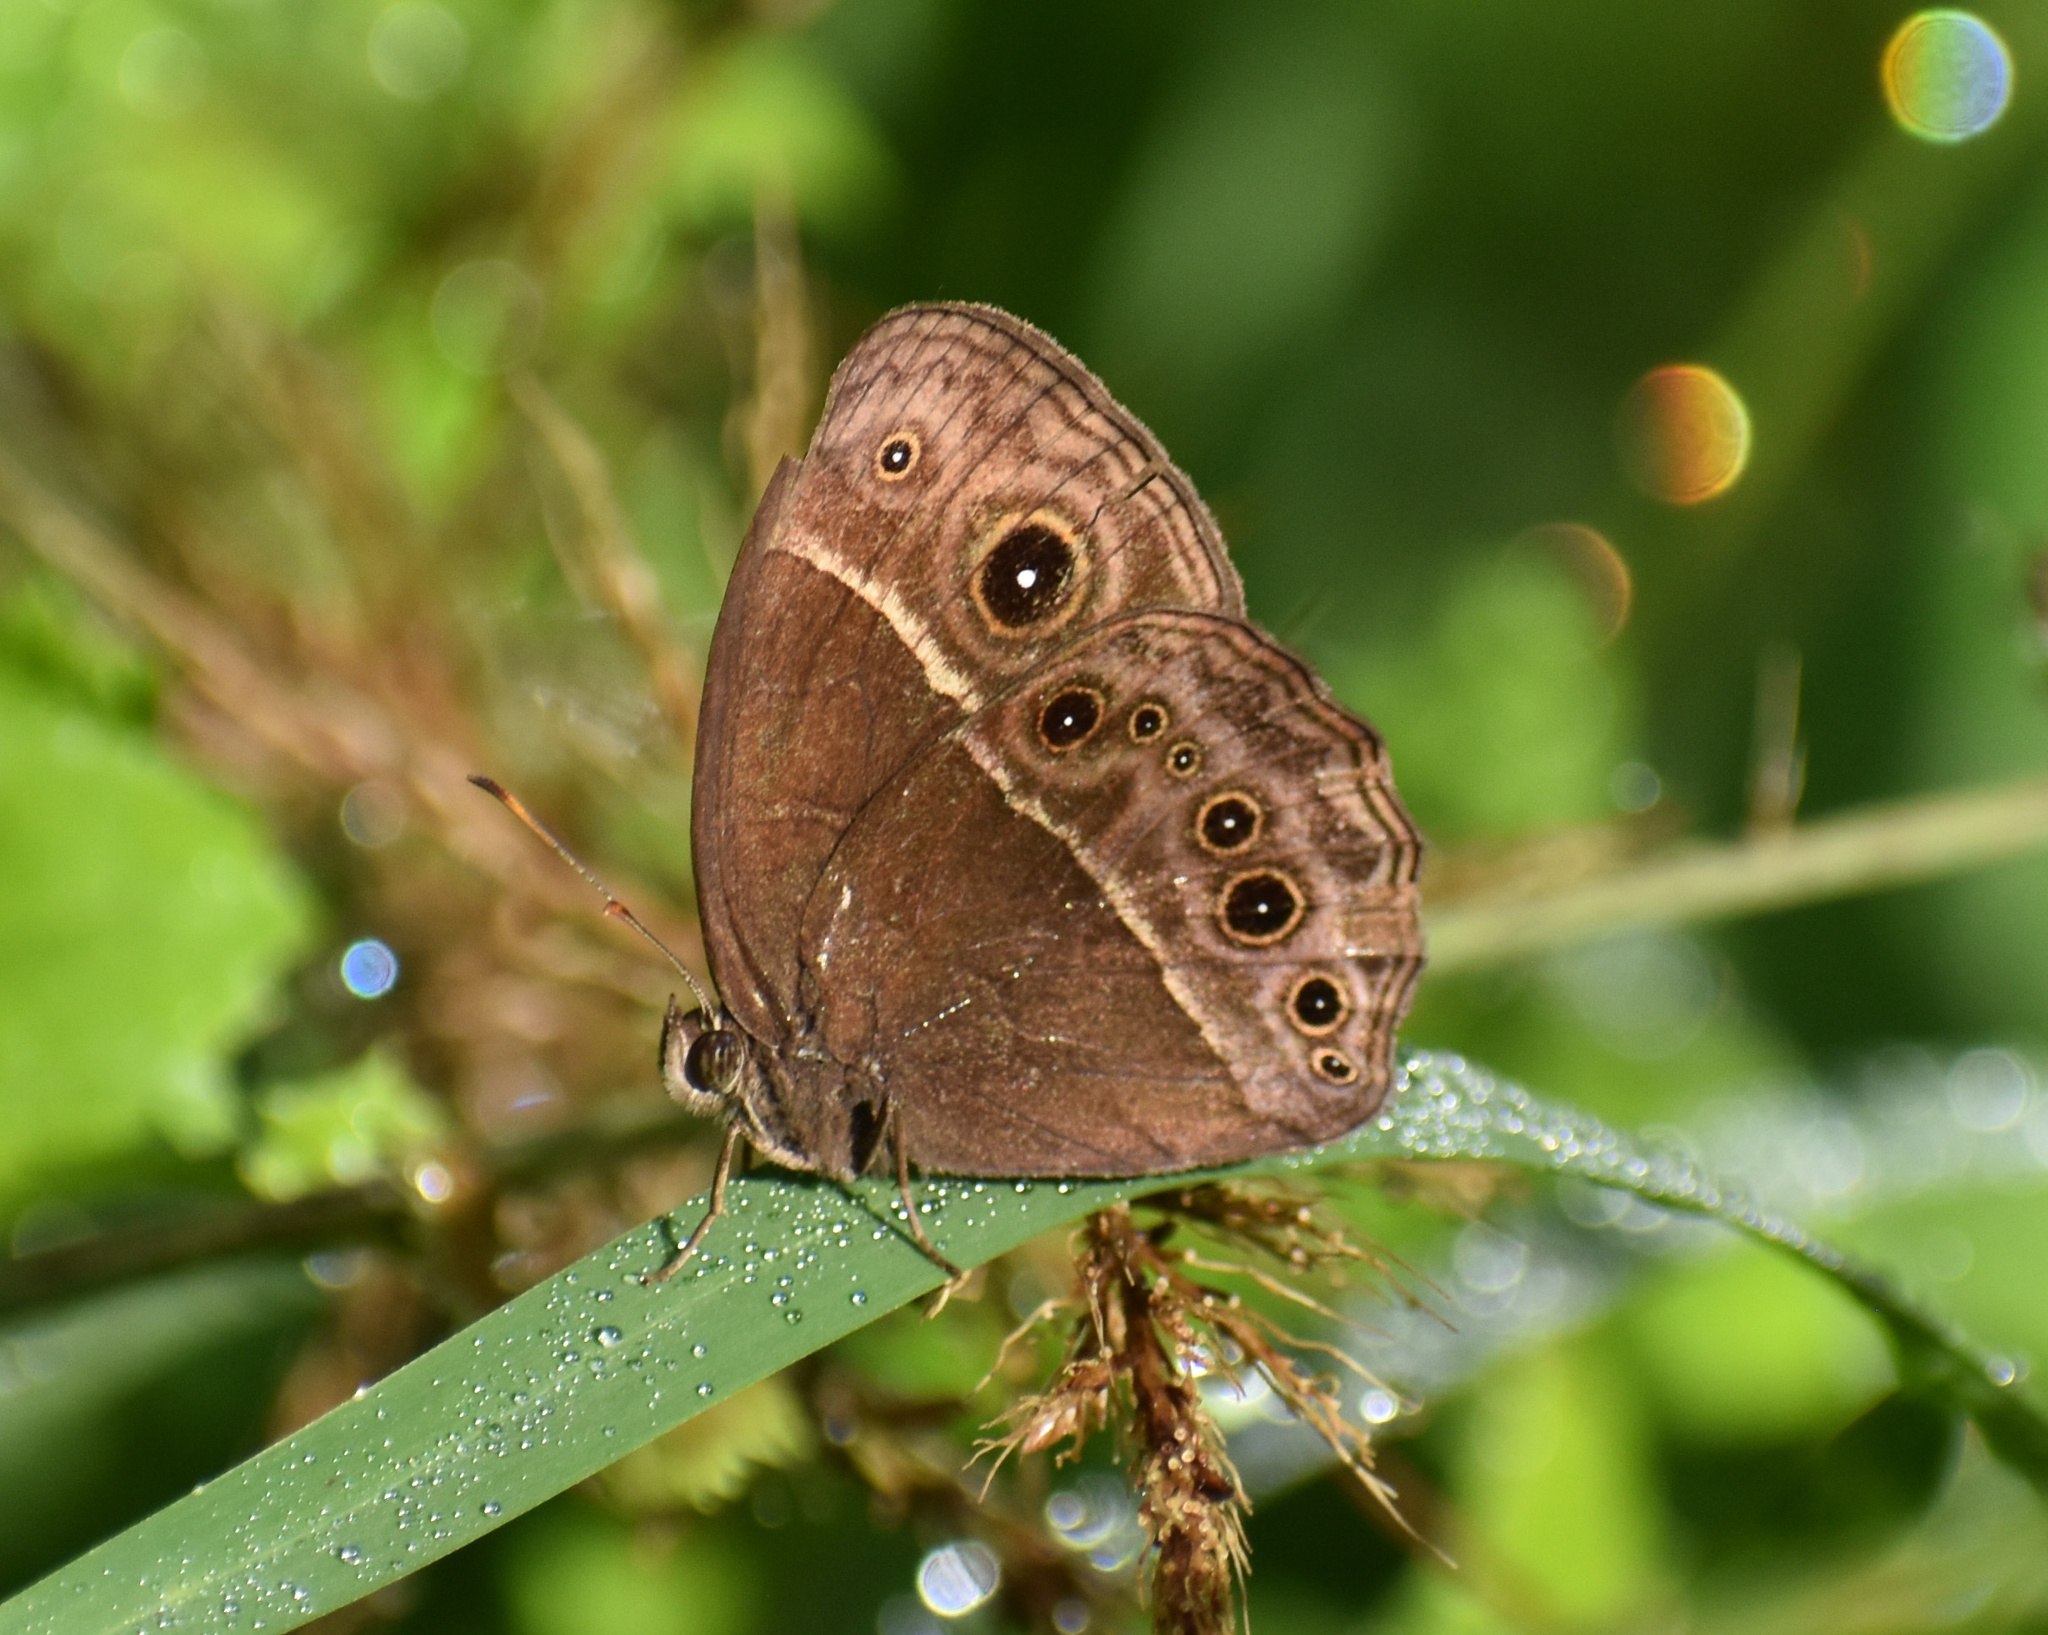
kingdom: Animalia
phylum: Arthropoda
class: Insecta
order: Lepidoptera
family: Nymphalidae
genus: Mycalesis
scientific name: Mycalesis rhacotis
